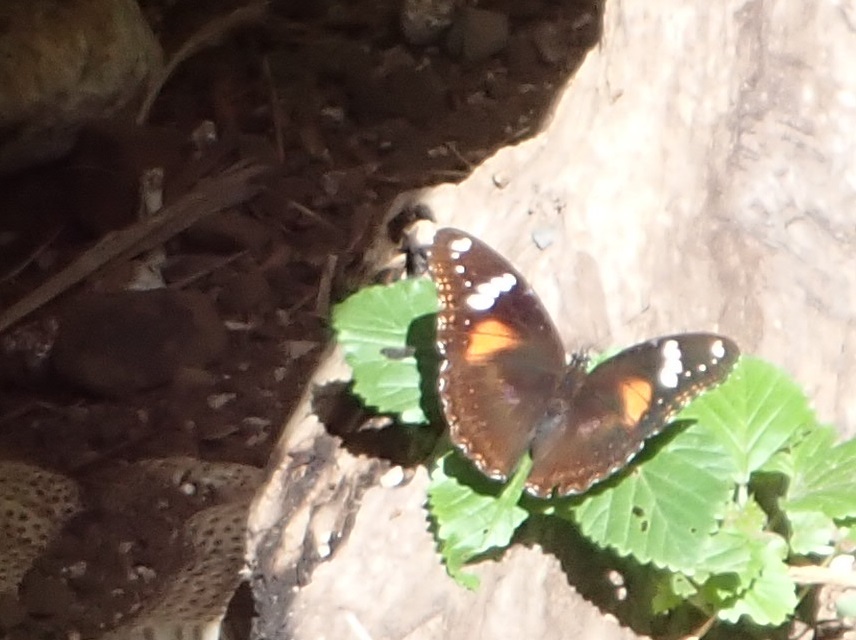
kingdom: Animalia
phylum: Arthropoda
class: Insecta
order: Lepidoptera
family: Nymphalidae
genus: Hypolimnas
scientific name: Hypolimnas bolina
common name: Great eggfly
